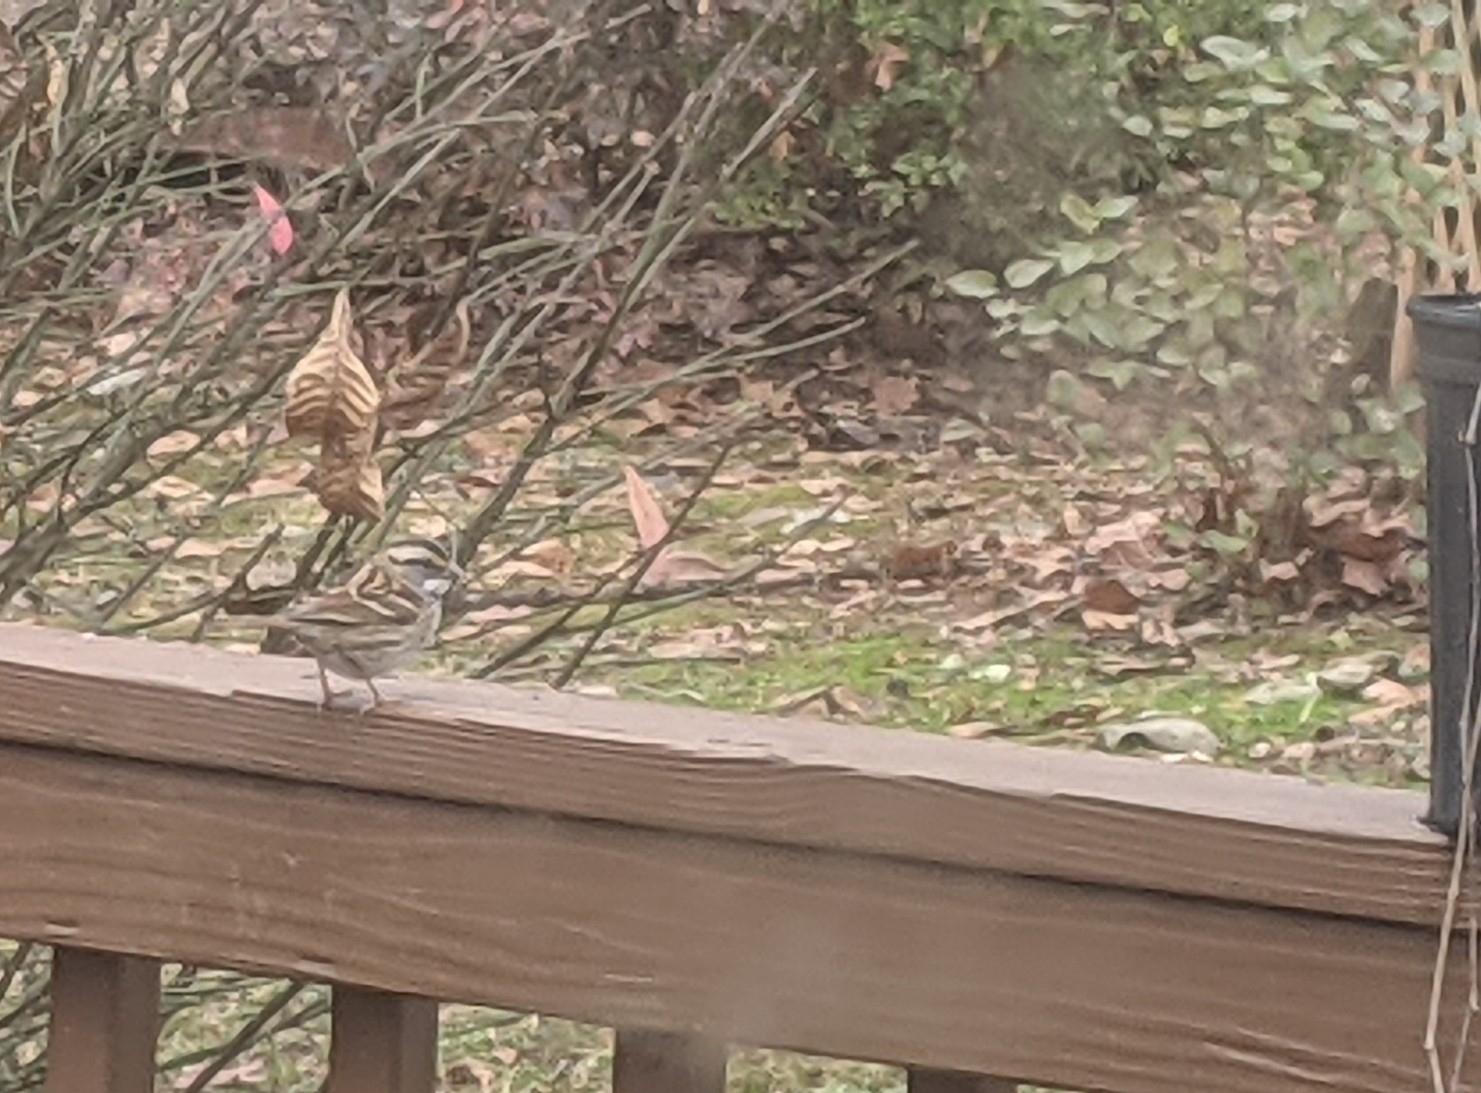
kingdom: Animalia
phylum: Chordata
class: Aves
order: Passeriformes
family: Passerellidae
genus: Zonotrichia
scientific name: Zonotrichia albicollis
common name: White-throated sparrow
